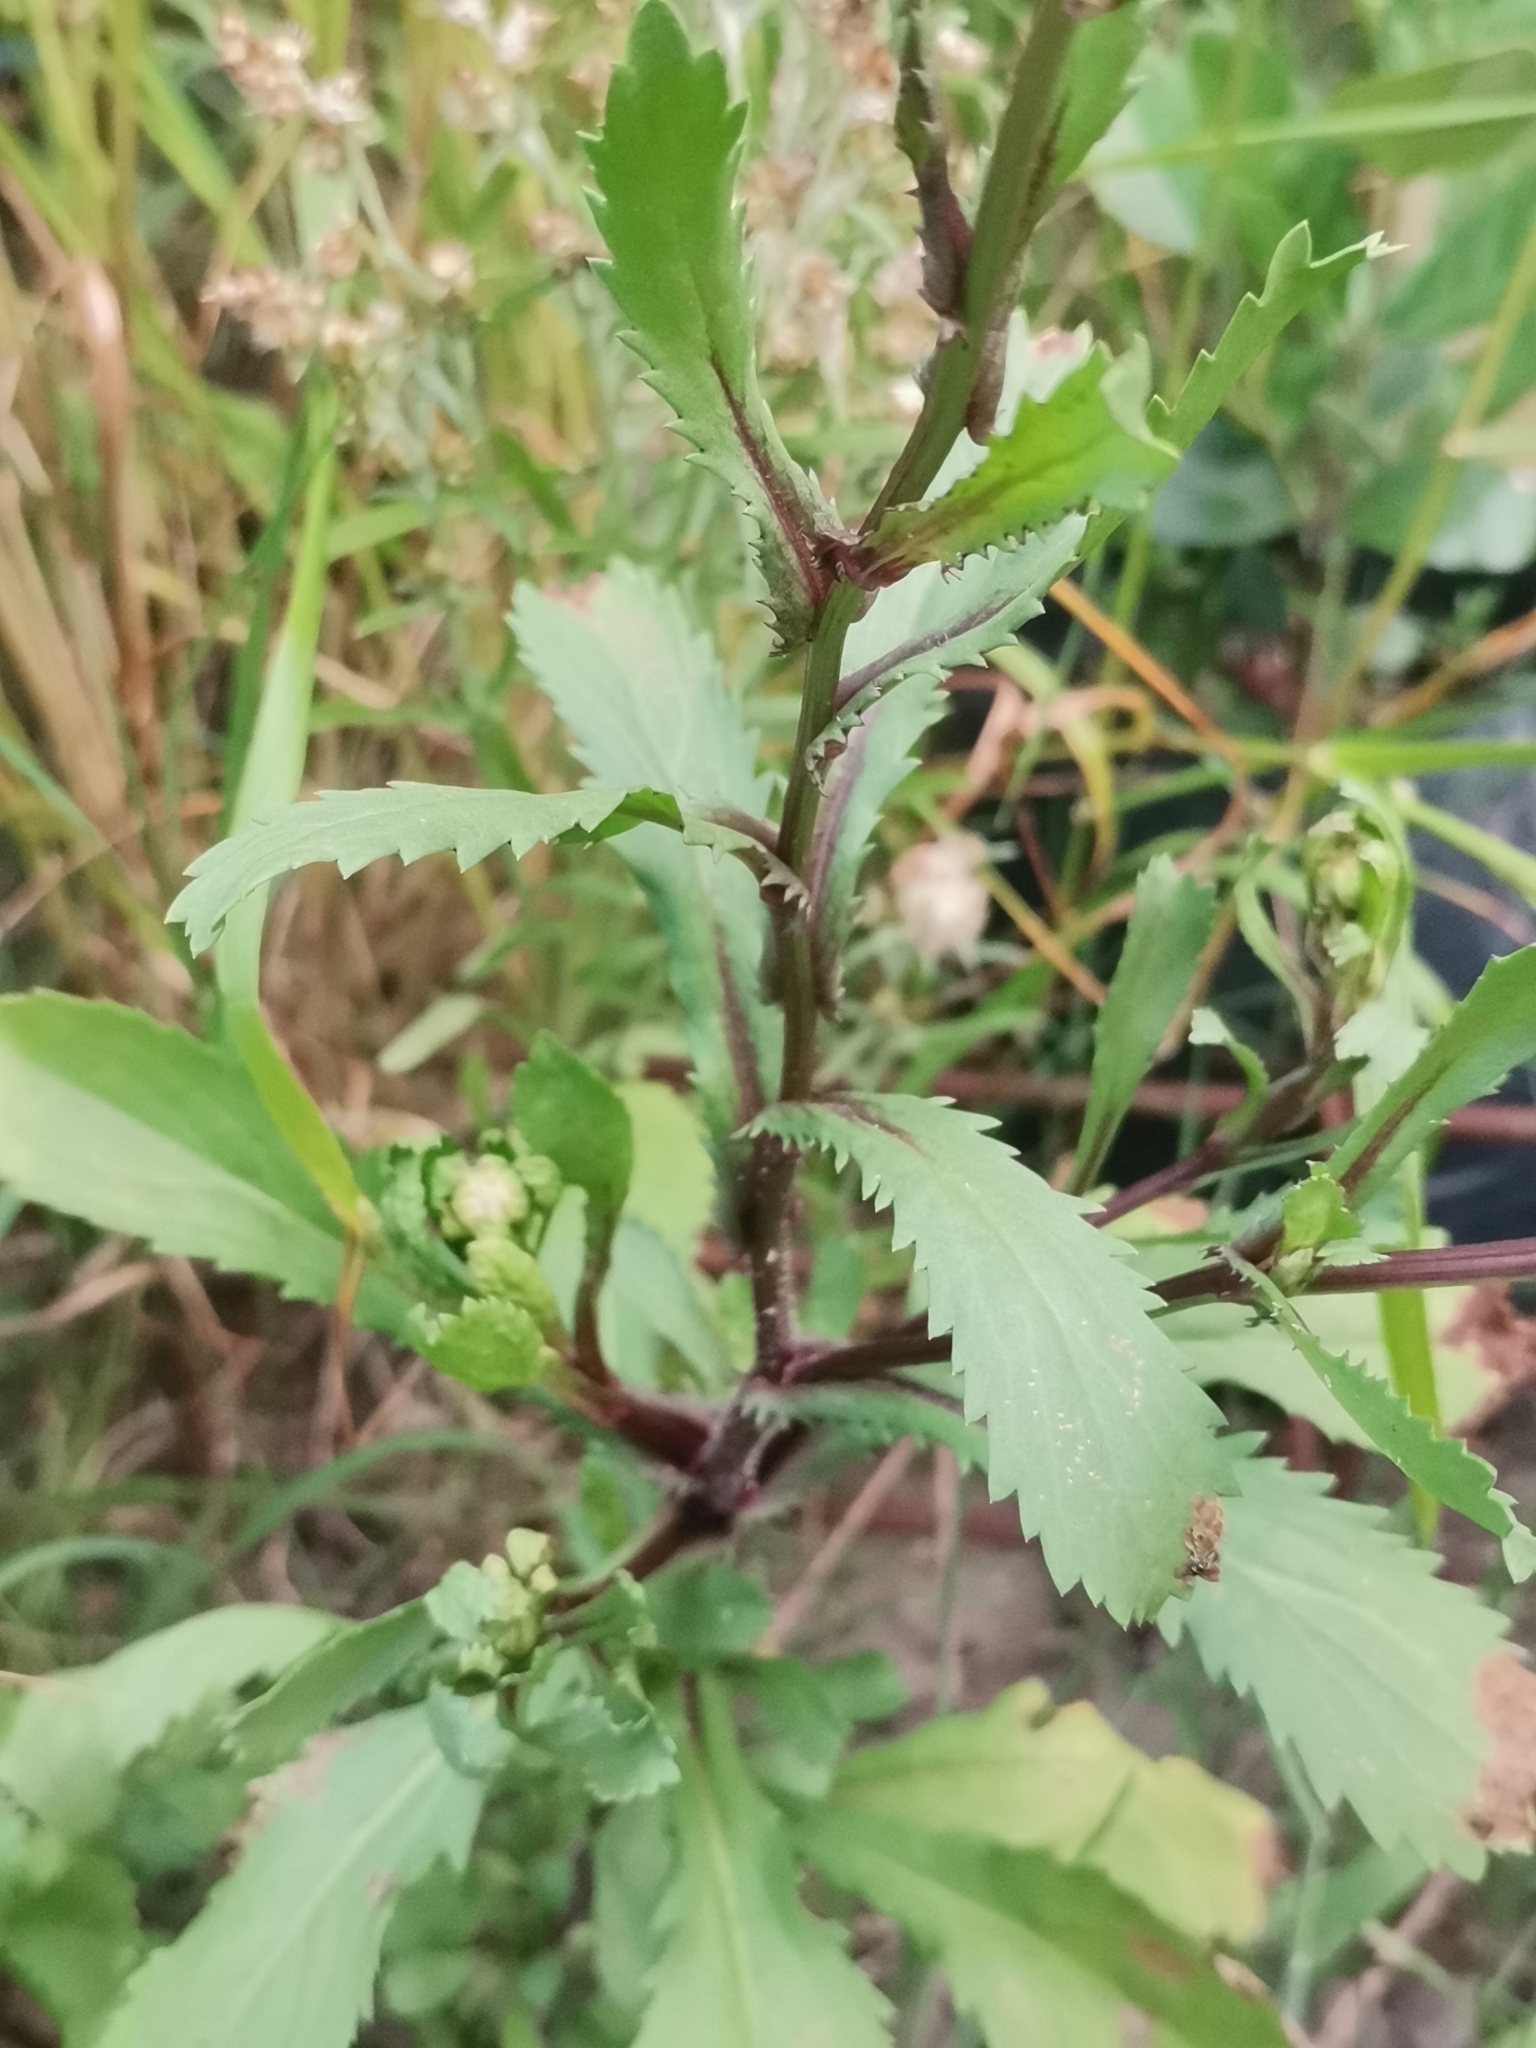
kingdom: Plantae
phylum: Tracheophyta
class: Magnoliopsida
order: Asterales
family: Asteraceae
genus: Coleostephus
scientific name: Coleostephus myconis
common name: Mediterranean marigold
